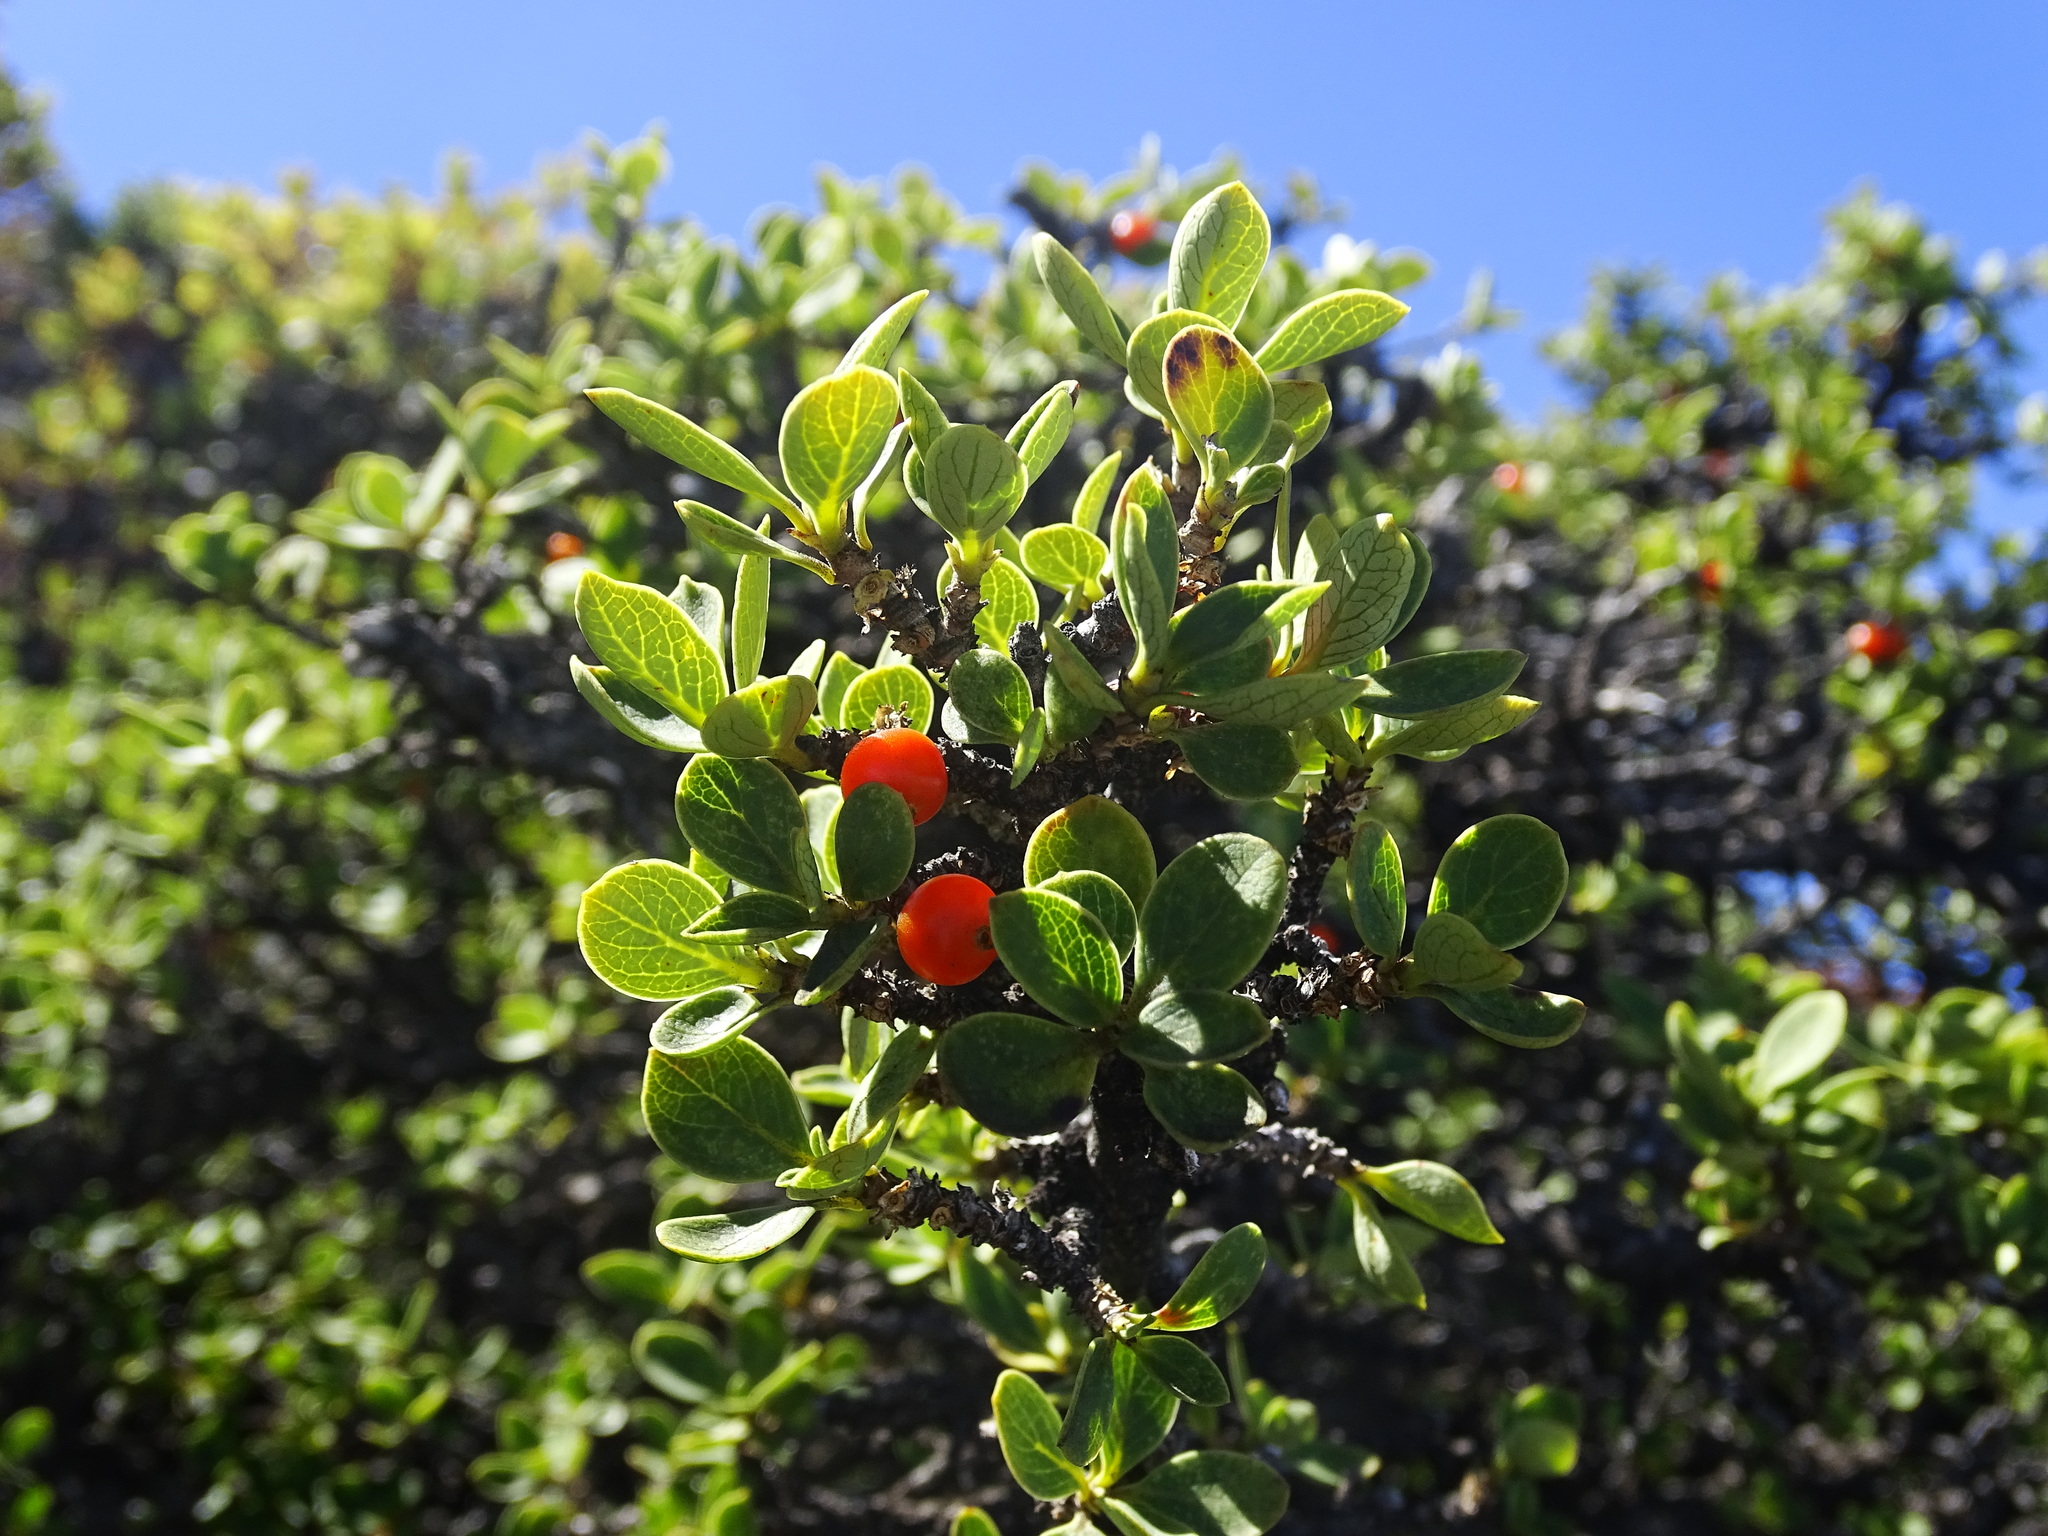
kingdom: Plantae
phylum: Tracheophyta
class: Magnoliopsida
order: Gentianales
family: Rubiaceae
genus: Coprosma
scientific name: Coprosma montana
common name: Alpine mirror plant
